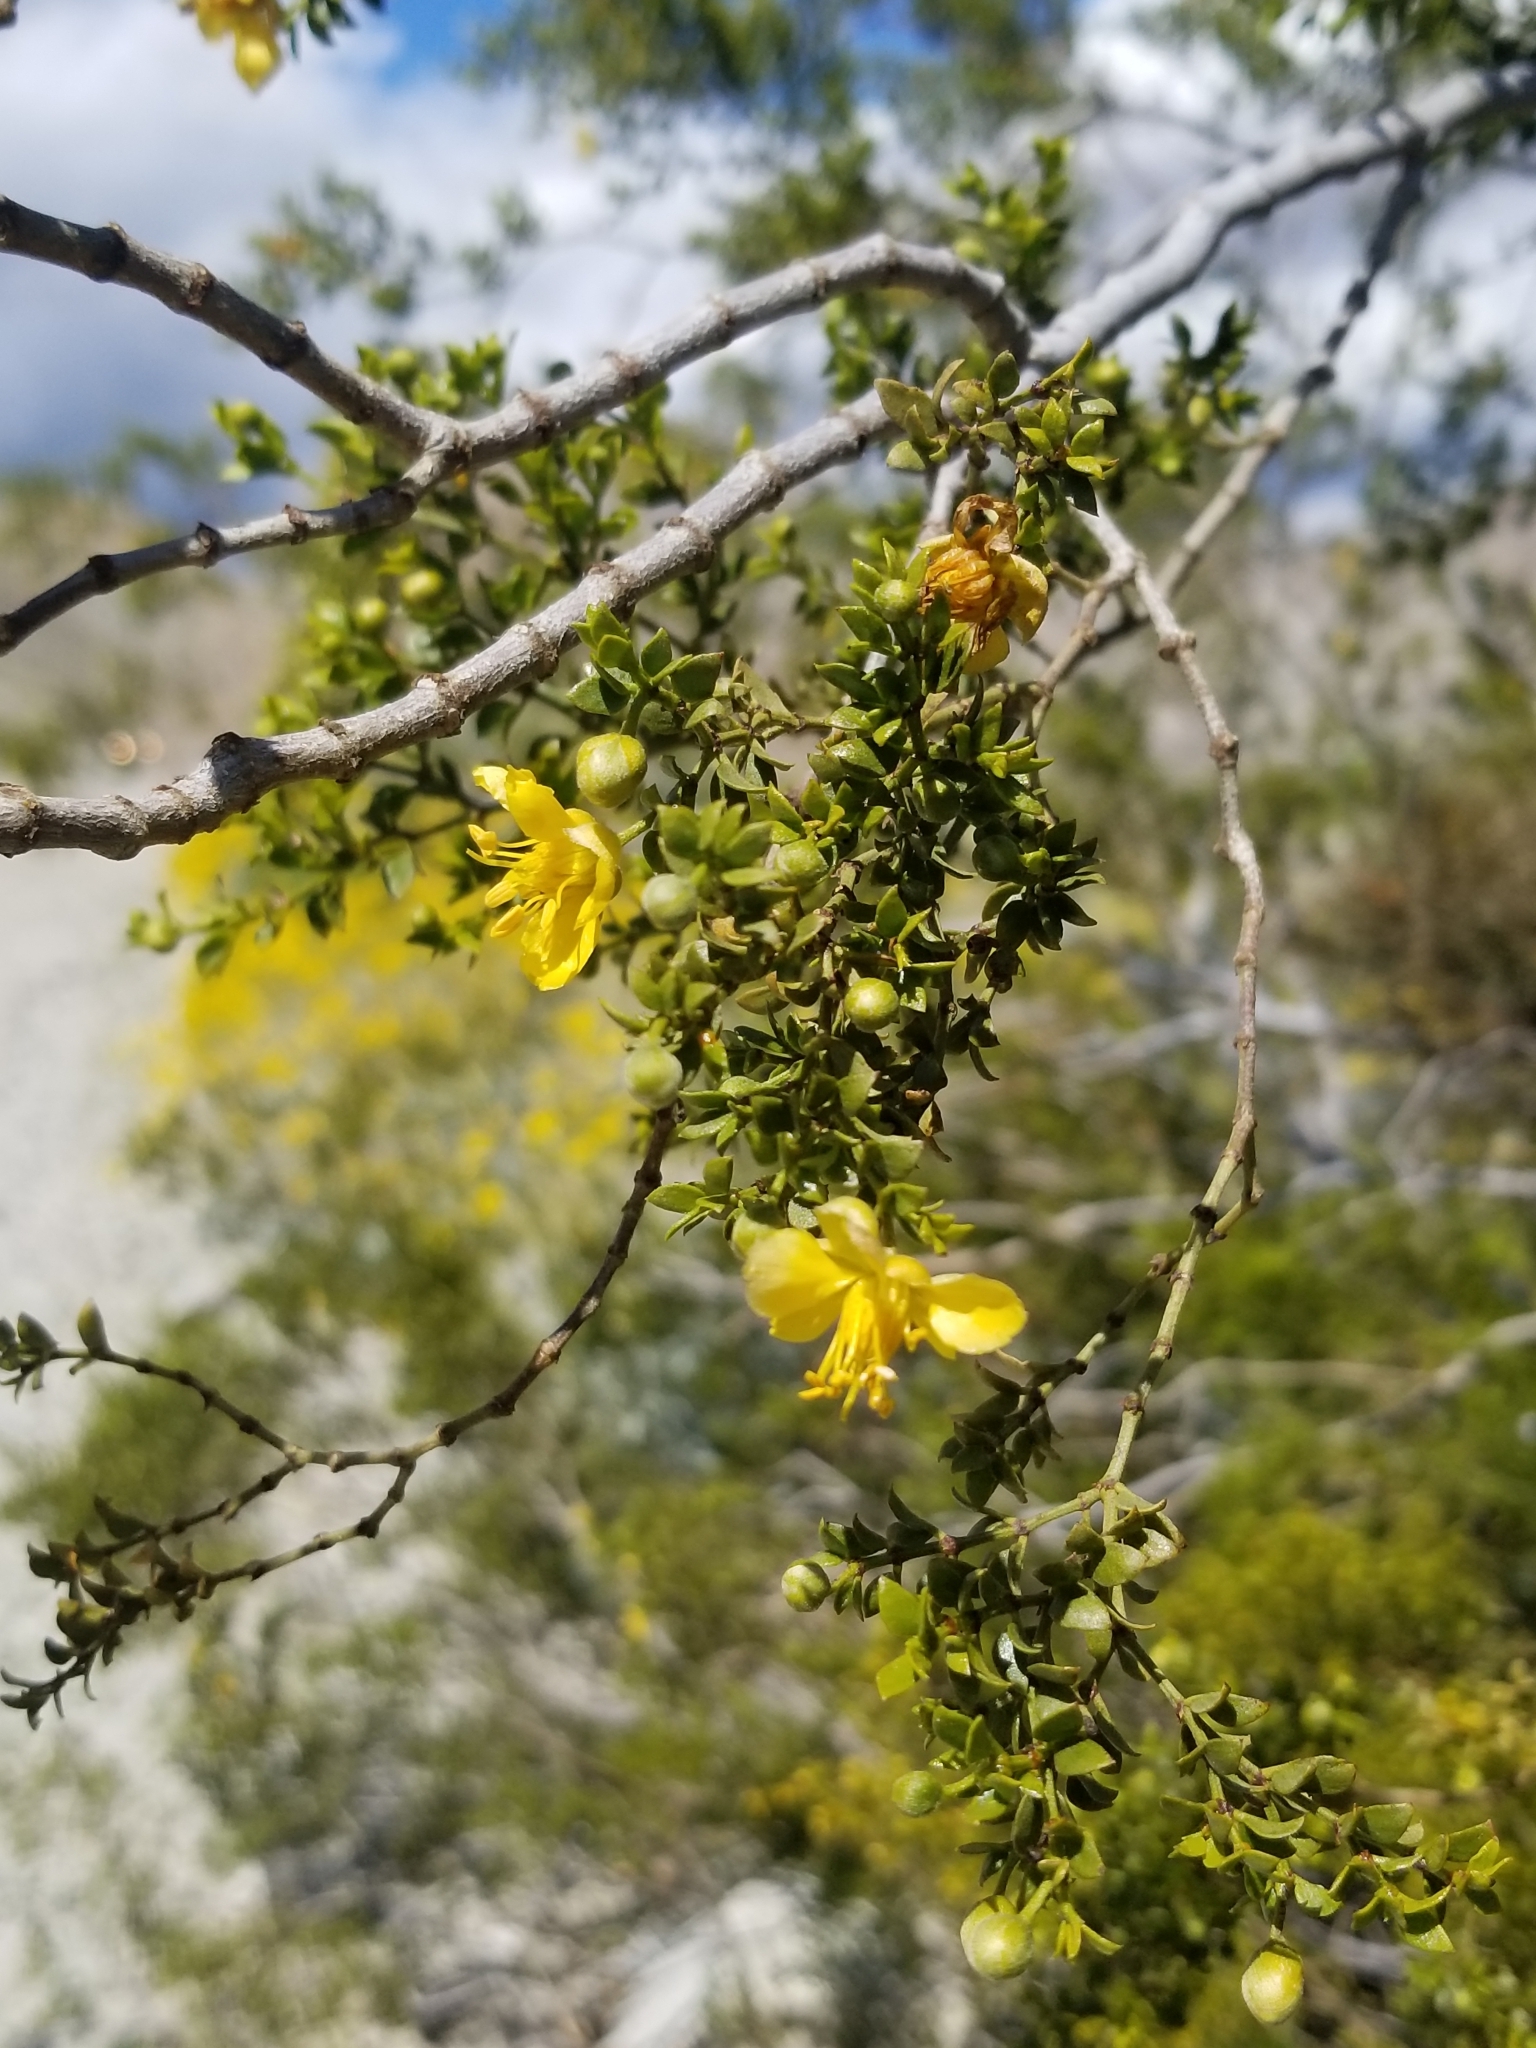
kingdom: Plantae
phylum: Tracheophyta
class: Magnoliopsida
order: Zygophyllales
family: Zygophyllaceae
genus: Larrea
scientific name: Larrea tridentata
